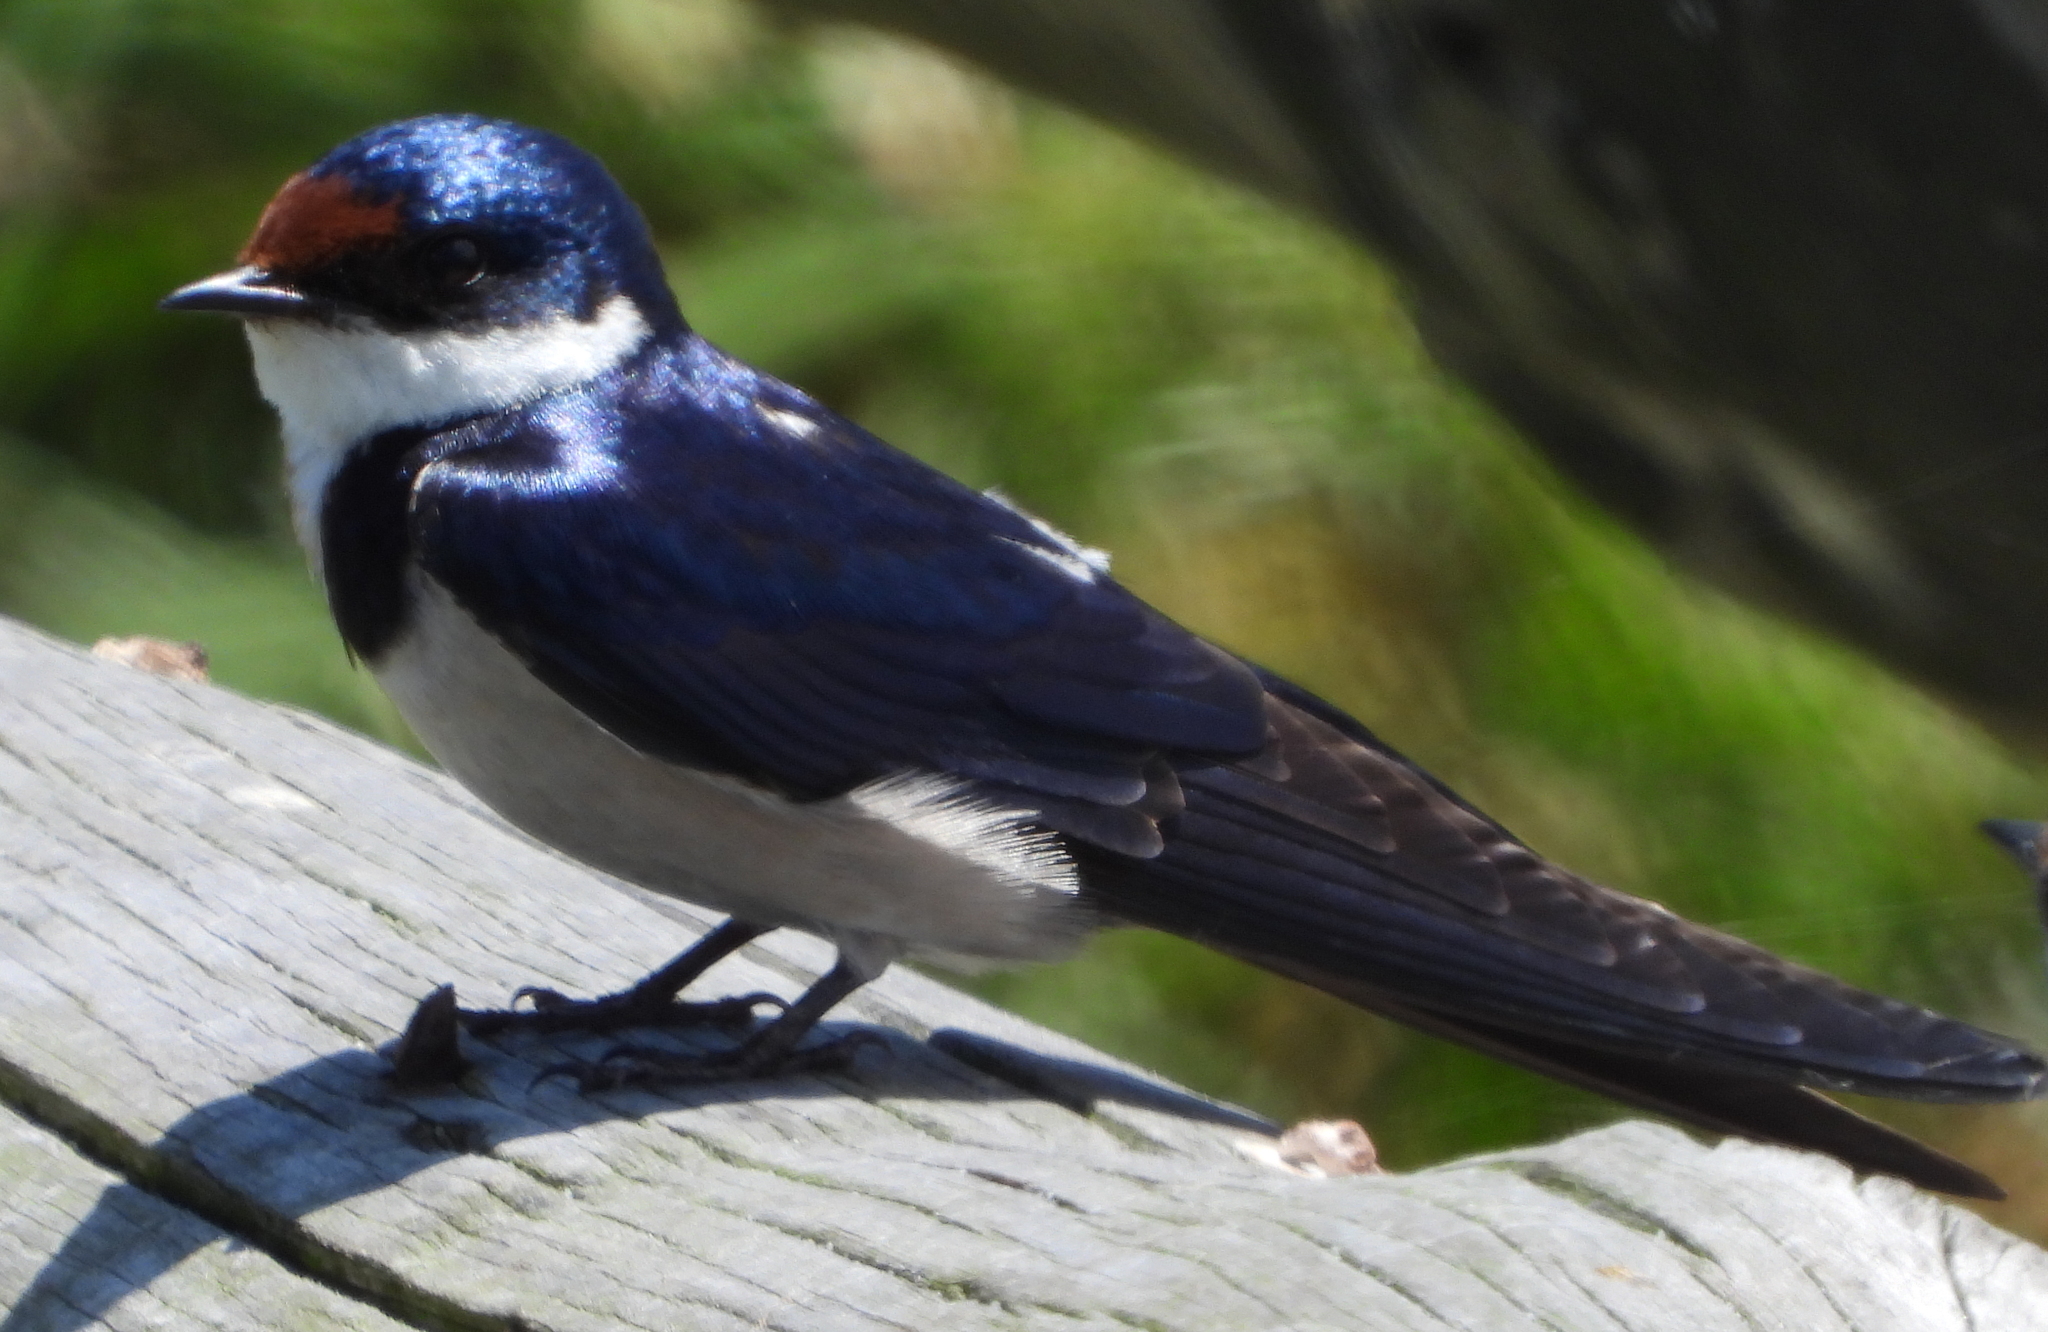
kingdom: Animalia
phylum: Chordata
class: Aves
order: Passeriformes
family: Hirundinidae
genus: Hirundo
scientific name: Hirundo albigularis
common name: White-throated swallow
